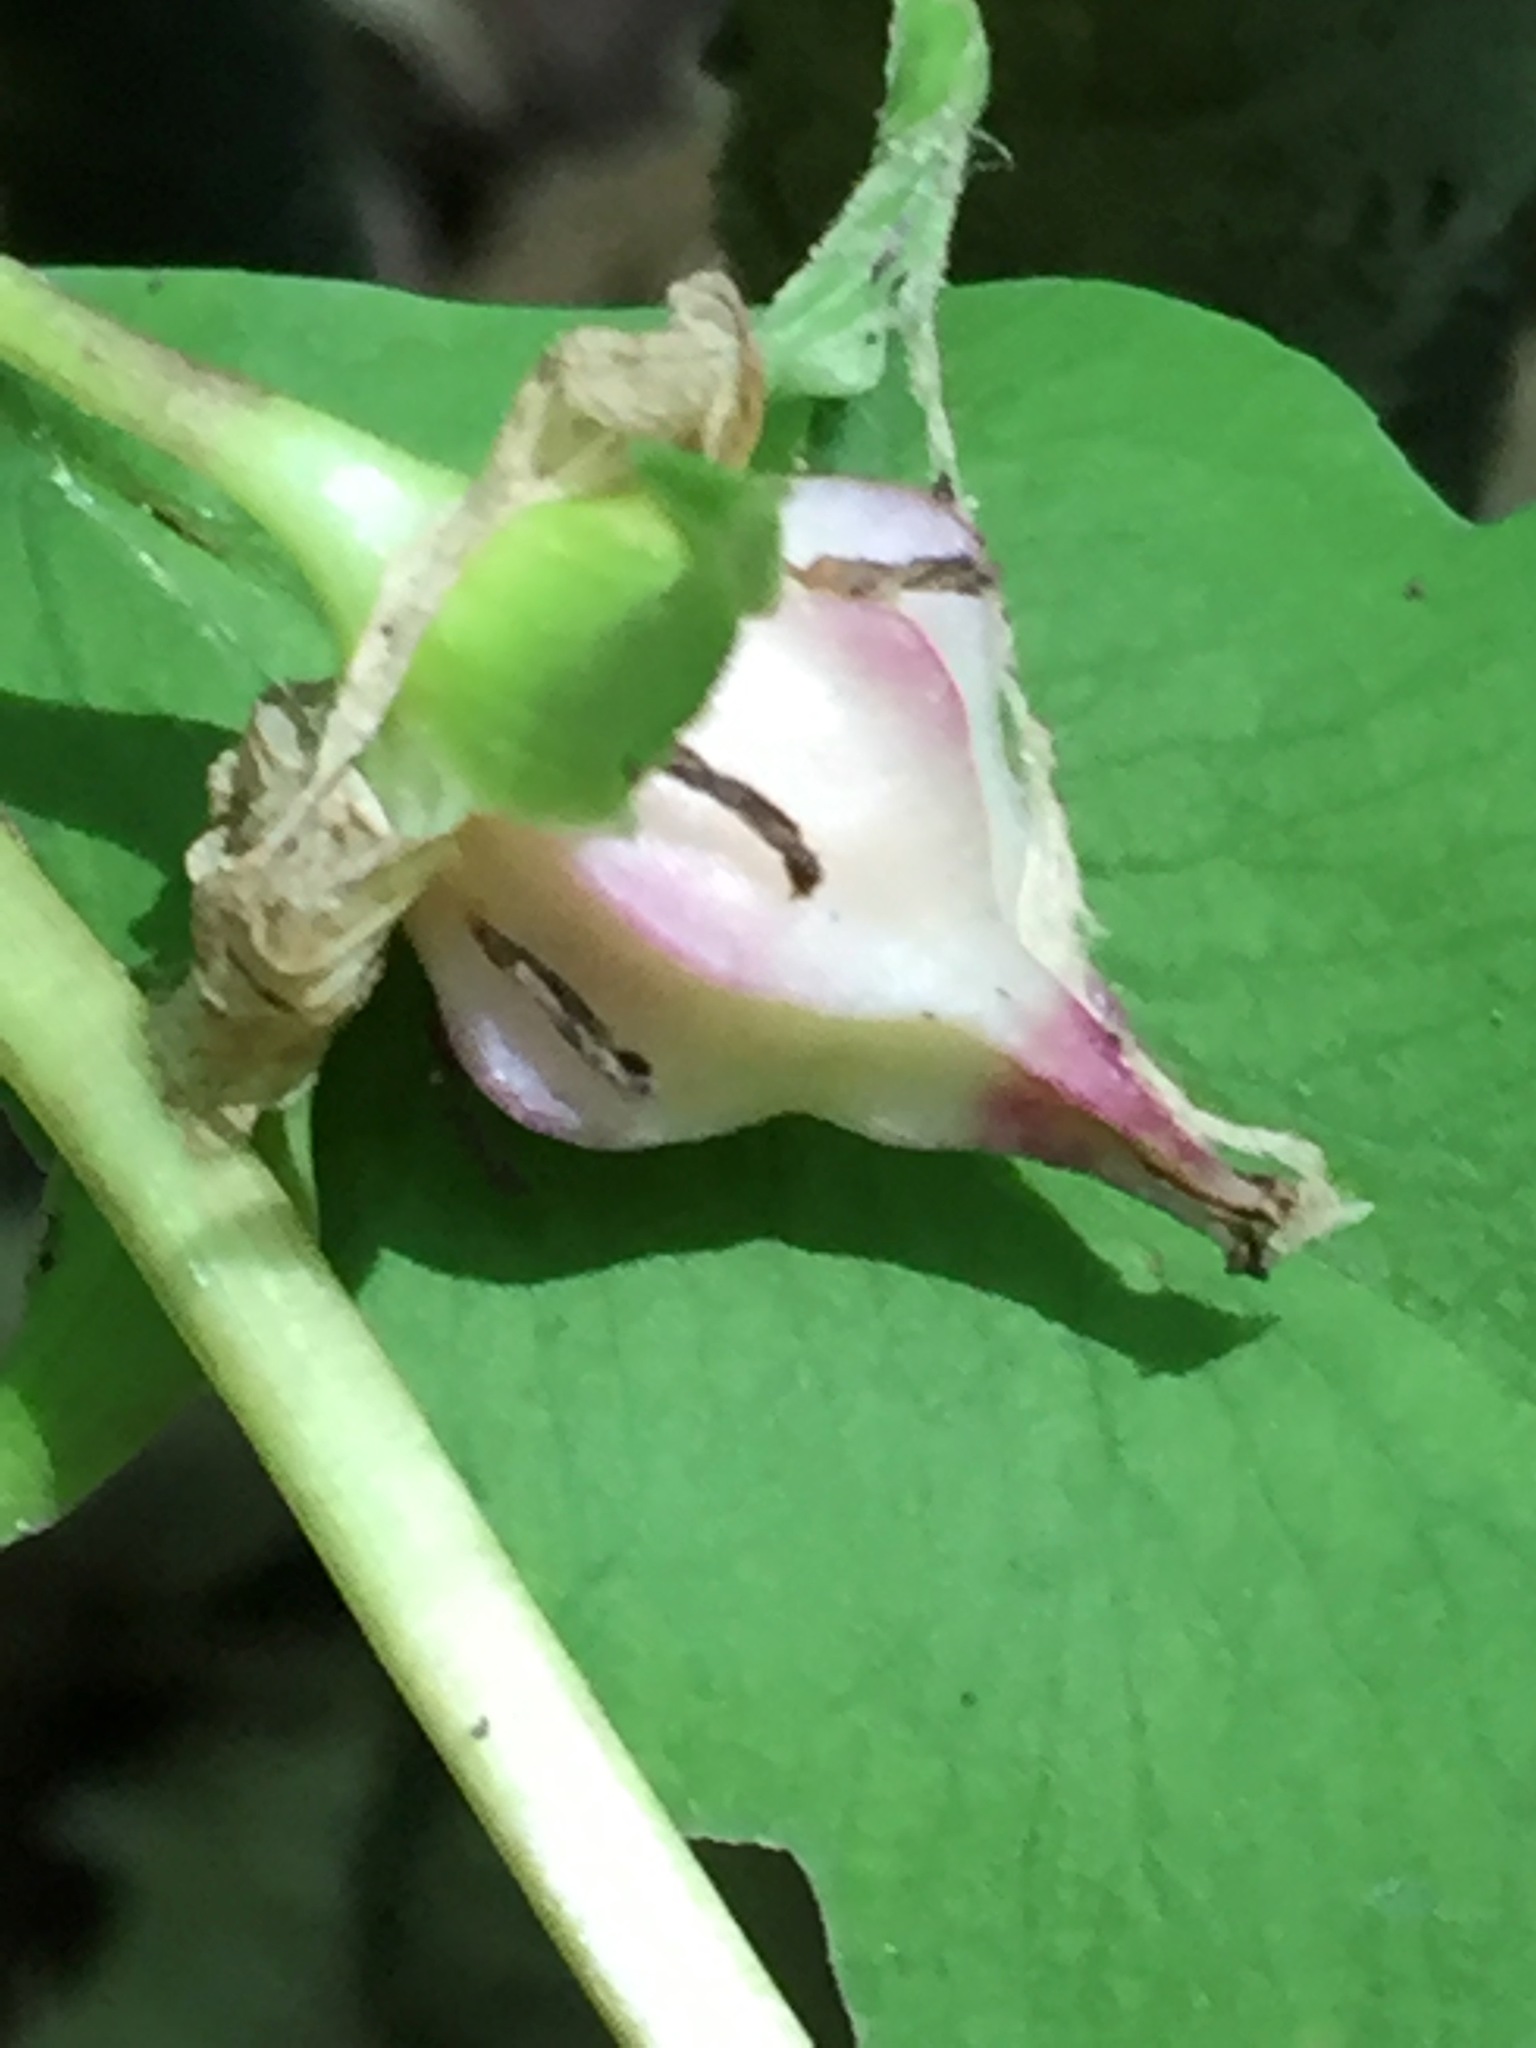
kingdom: Plantae
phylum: Tracheophyta
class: Liliopsida
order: Liliales
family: Melanthiaceae
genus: Trillium
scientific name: Trillium cernuum
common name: Nodding trillium
